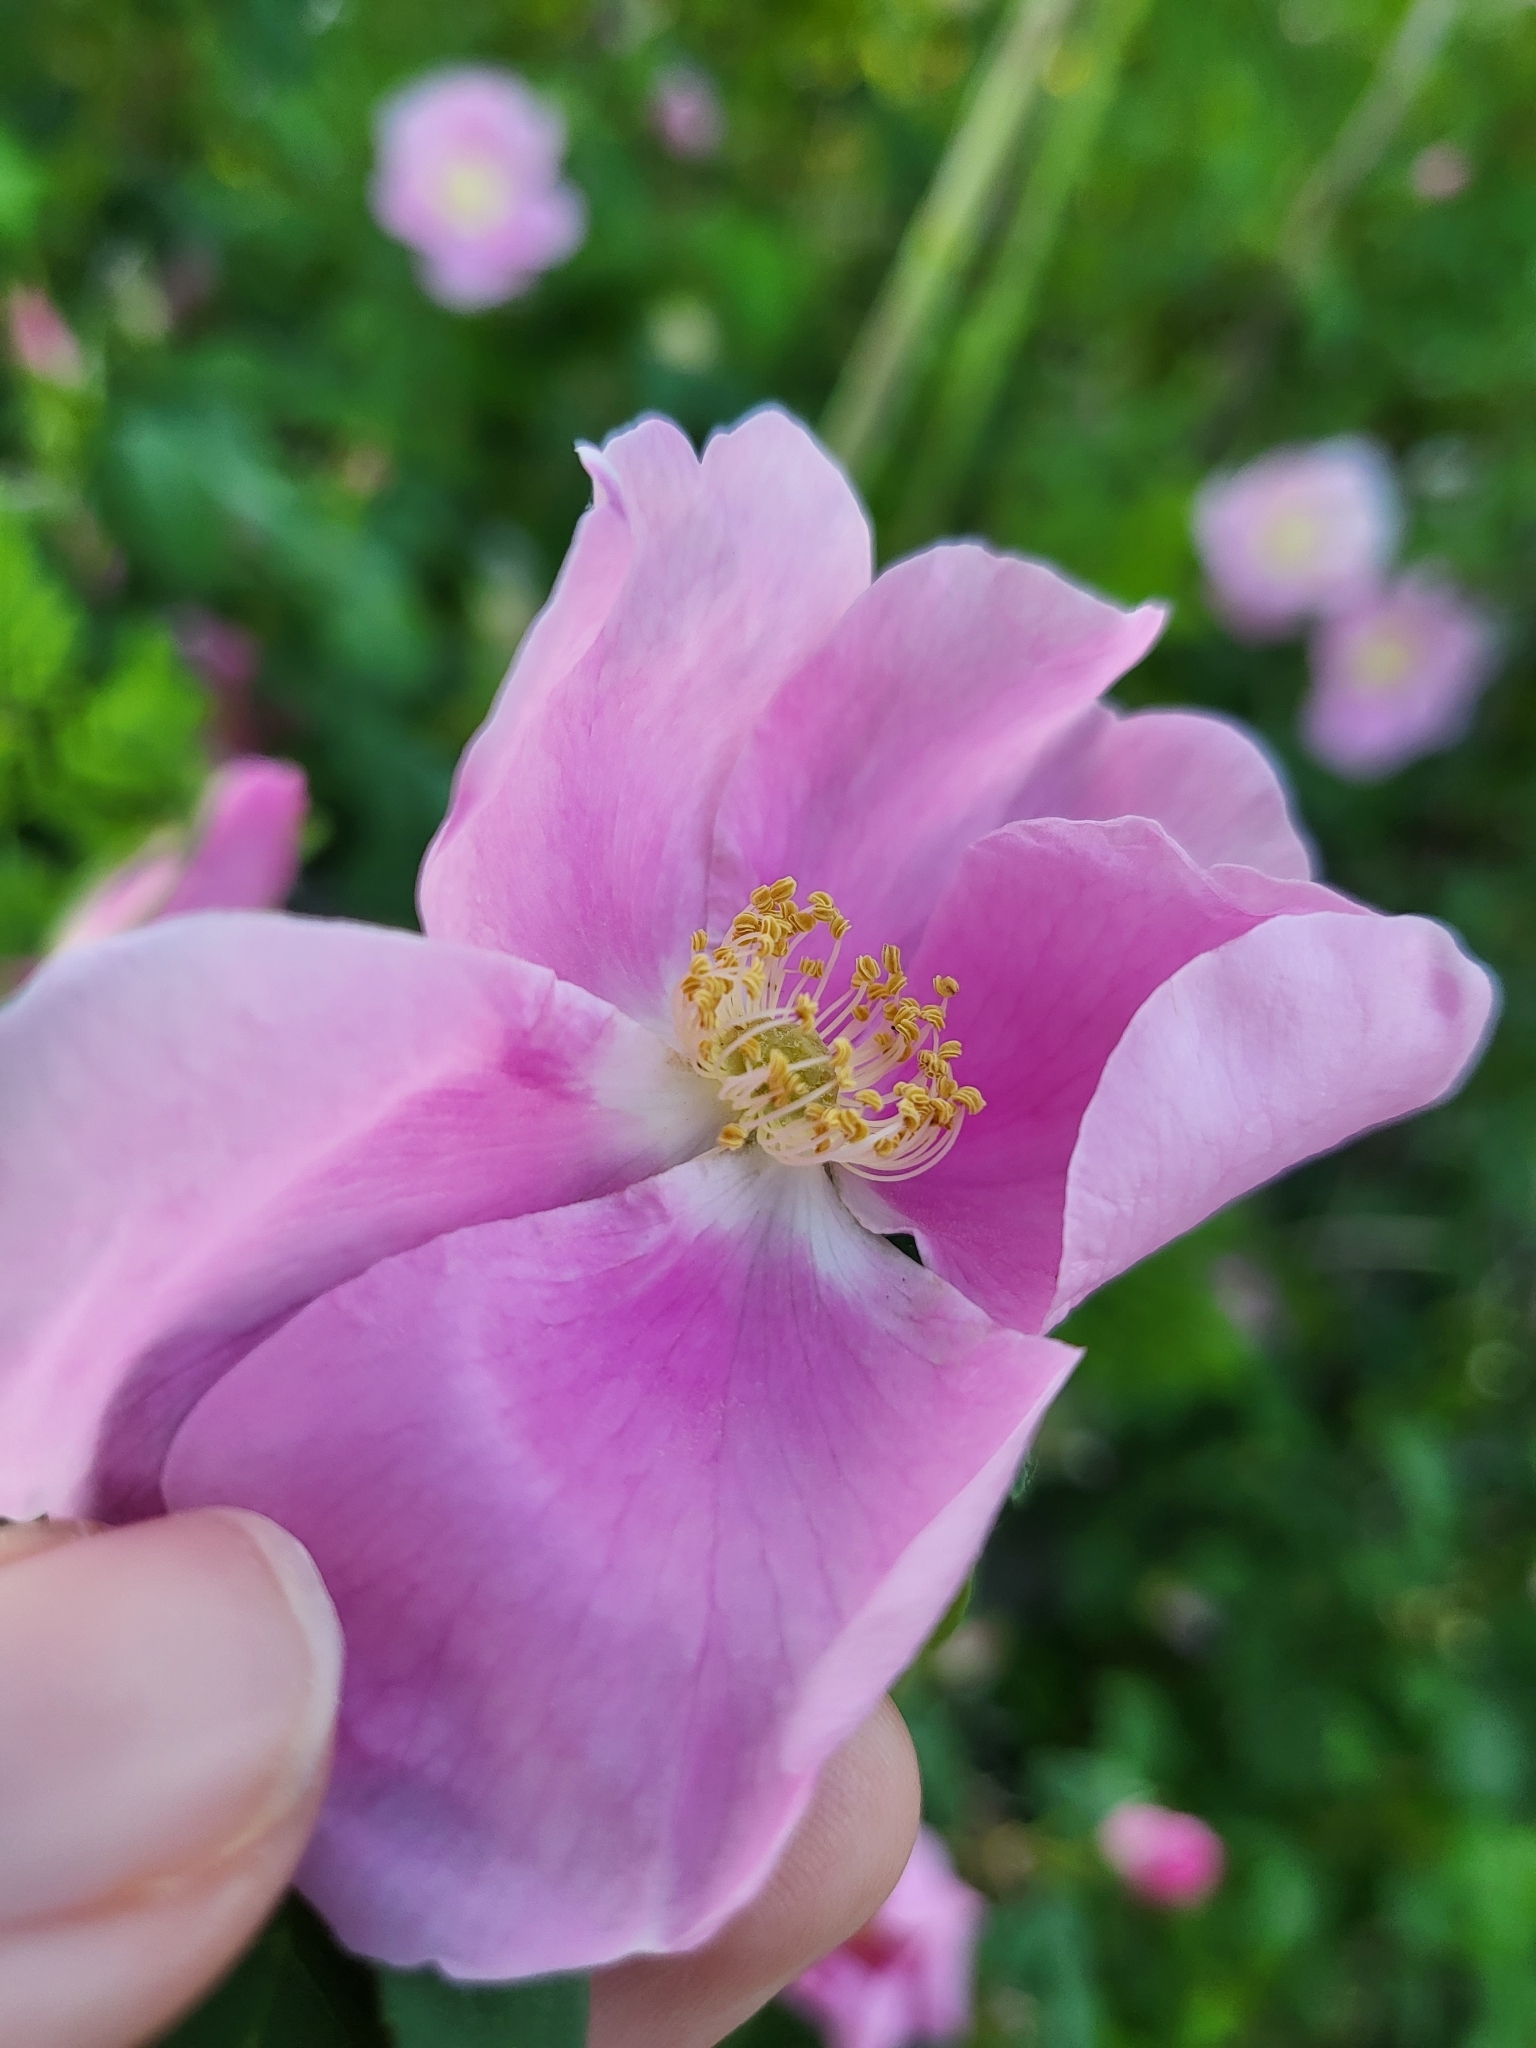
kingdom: Plantae
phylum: Tracheophyta
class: Magnoliopsida
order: Rosales
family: Rosaceae
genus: Rosa
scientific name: Rosa nutkana
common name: Nootka rose
